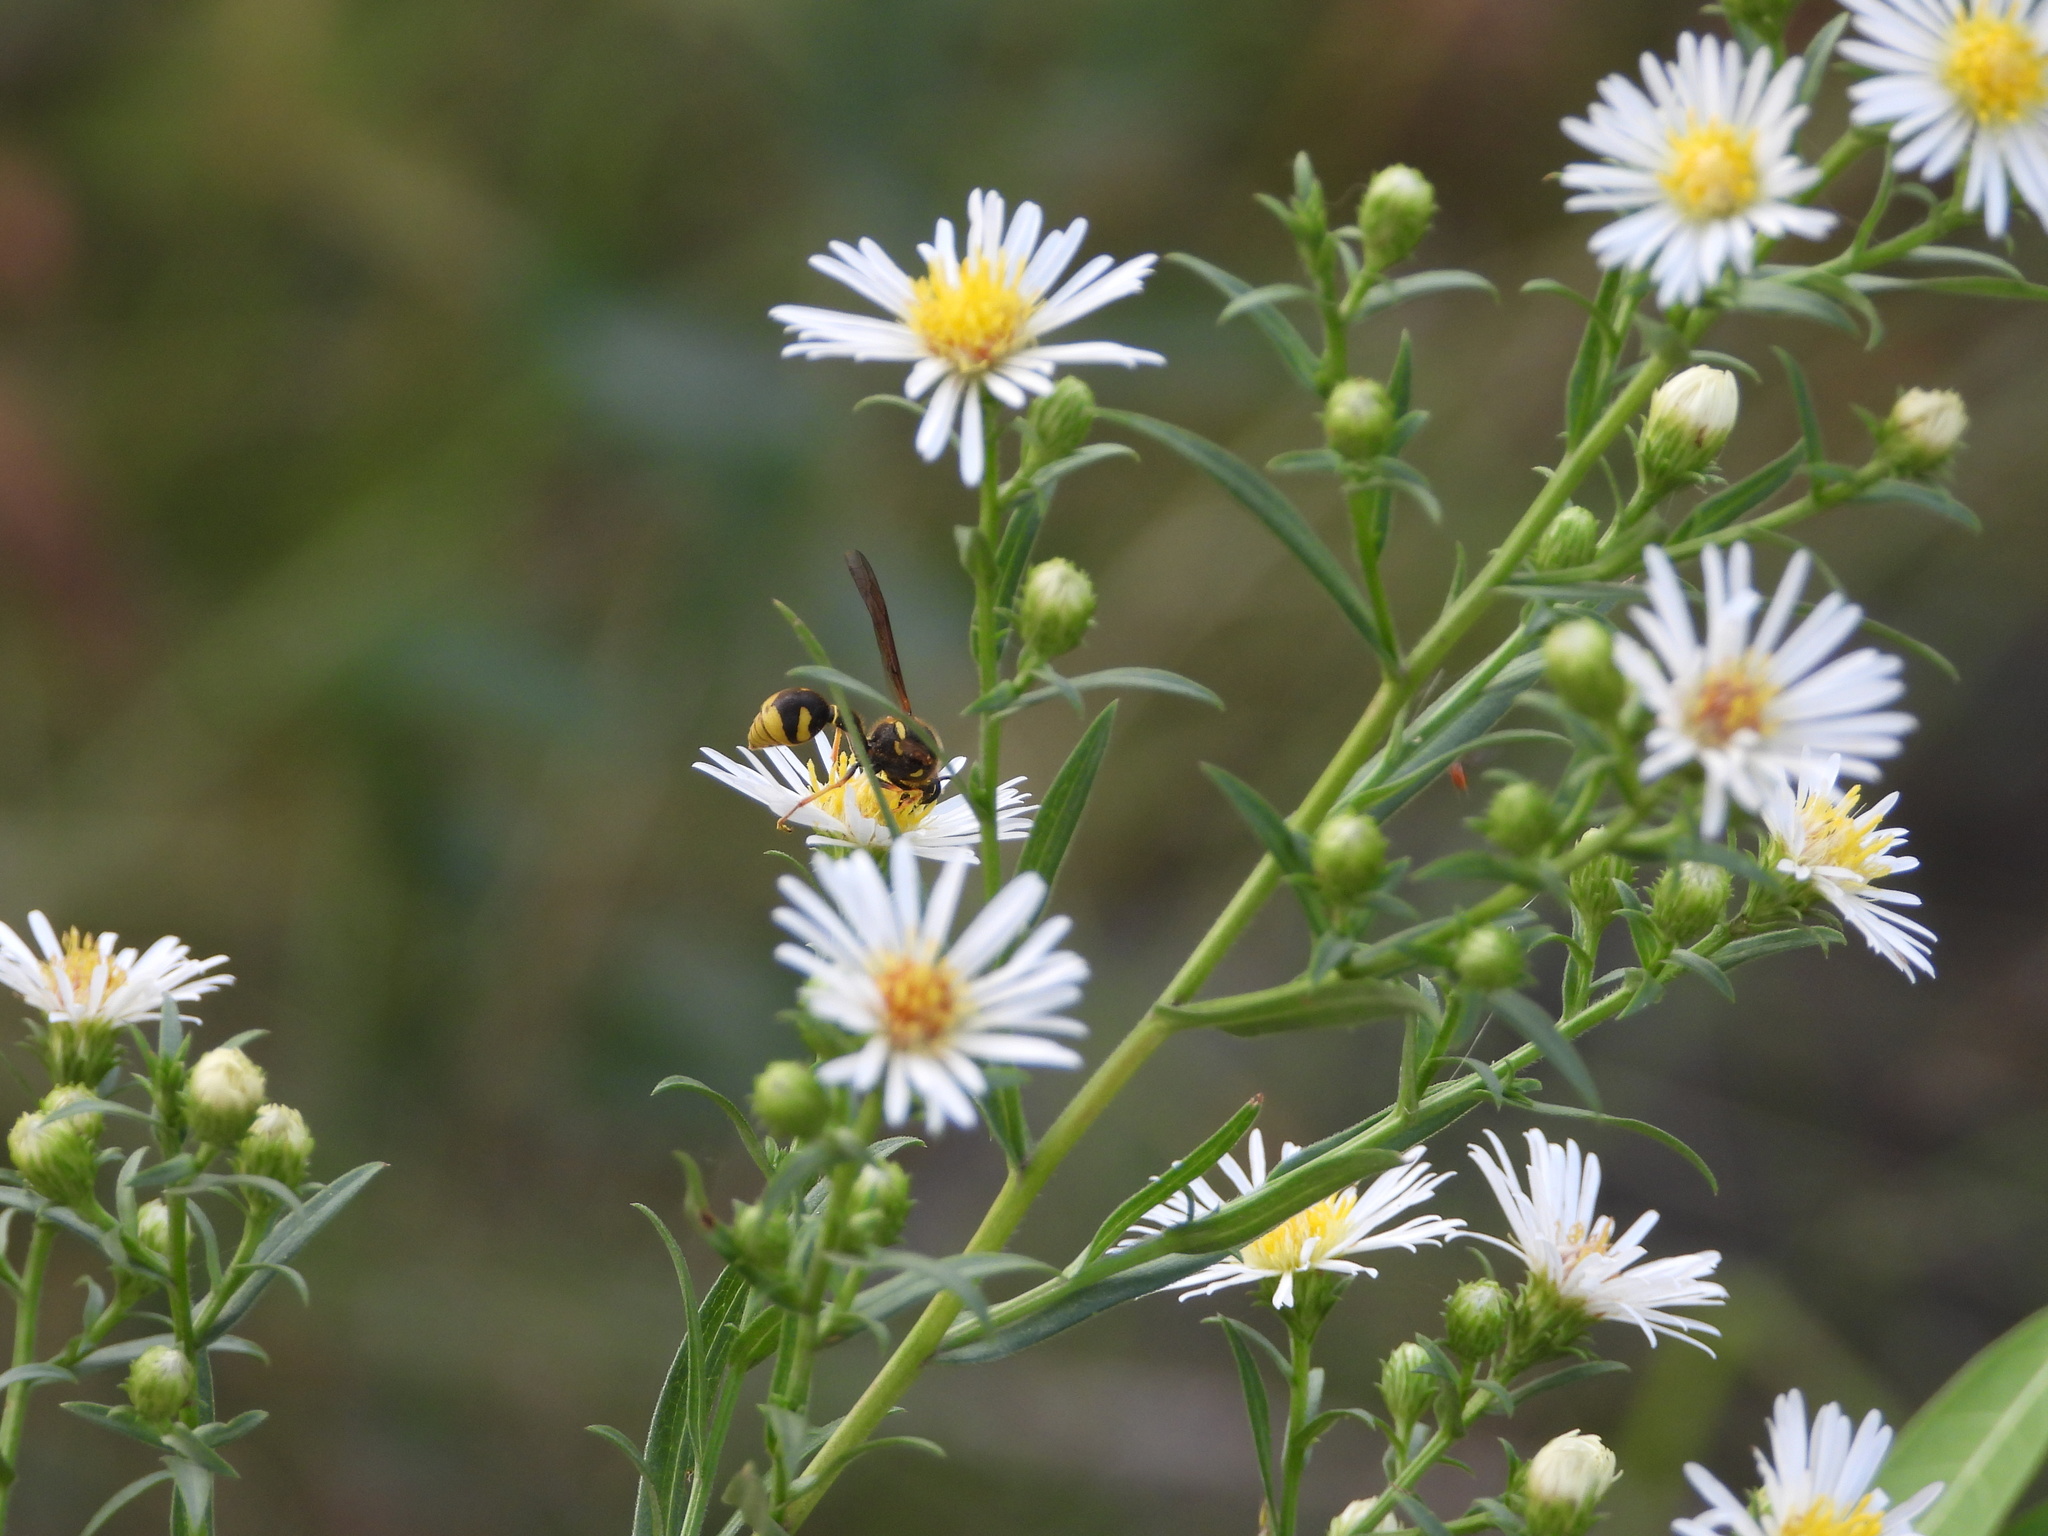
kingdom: Animalia
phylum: Arthropoda
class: Insecta
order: Hymenoptera
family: Vespidae
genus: Eumenes
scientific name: Eumenes crucifera
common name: Cross potter wasp
